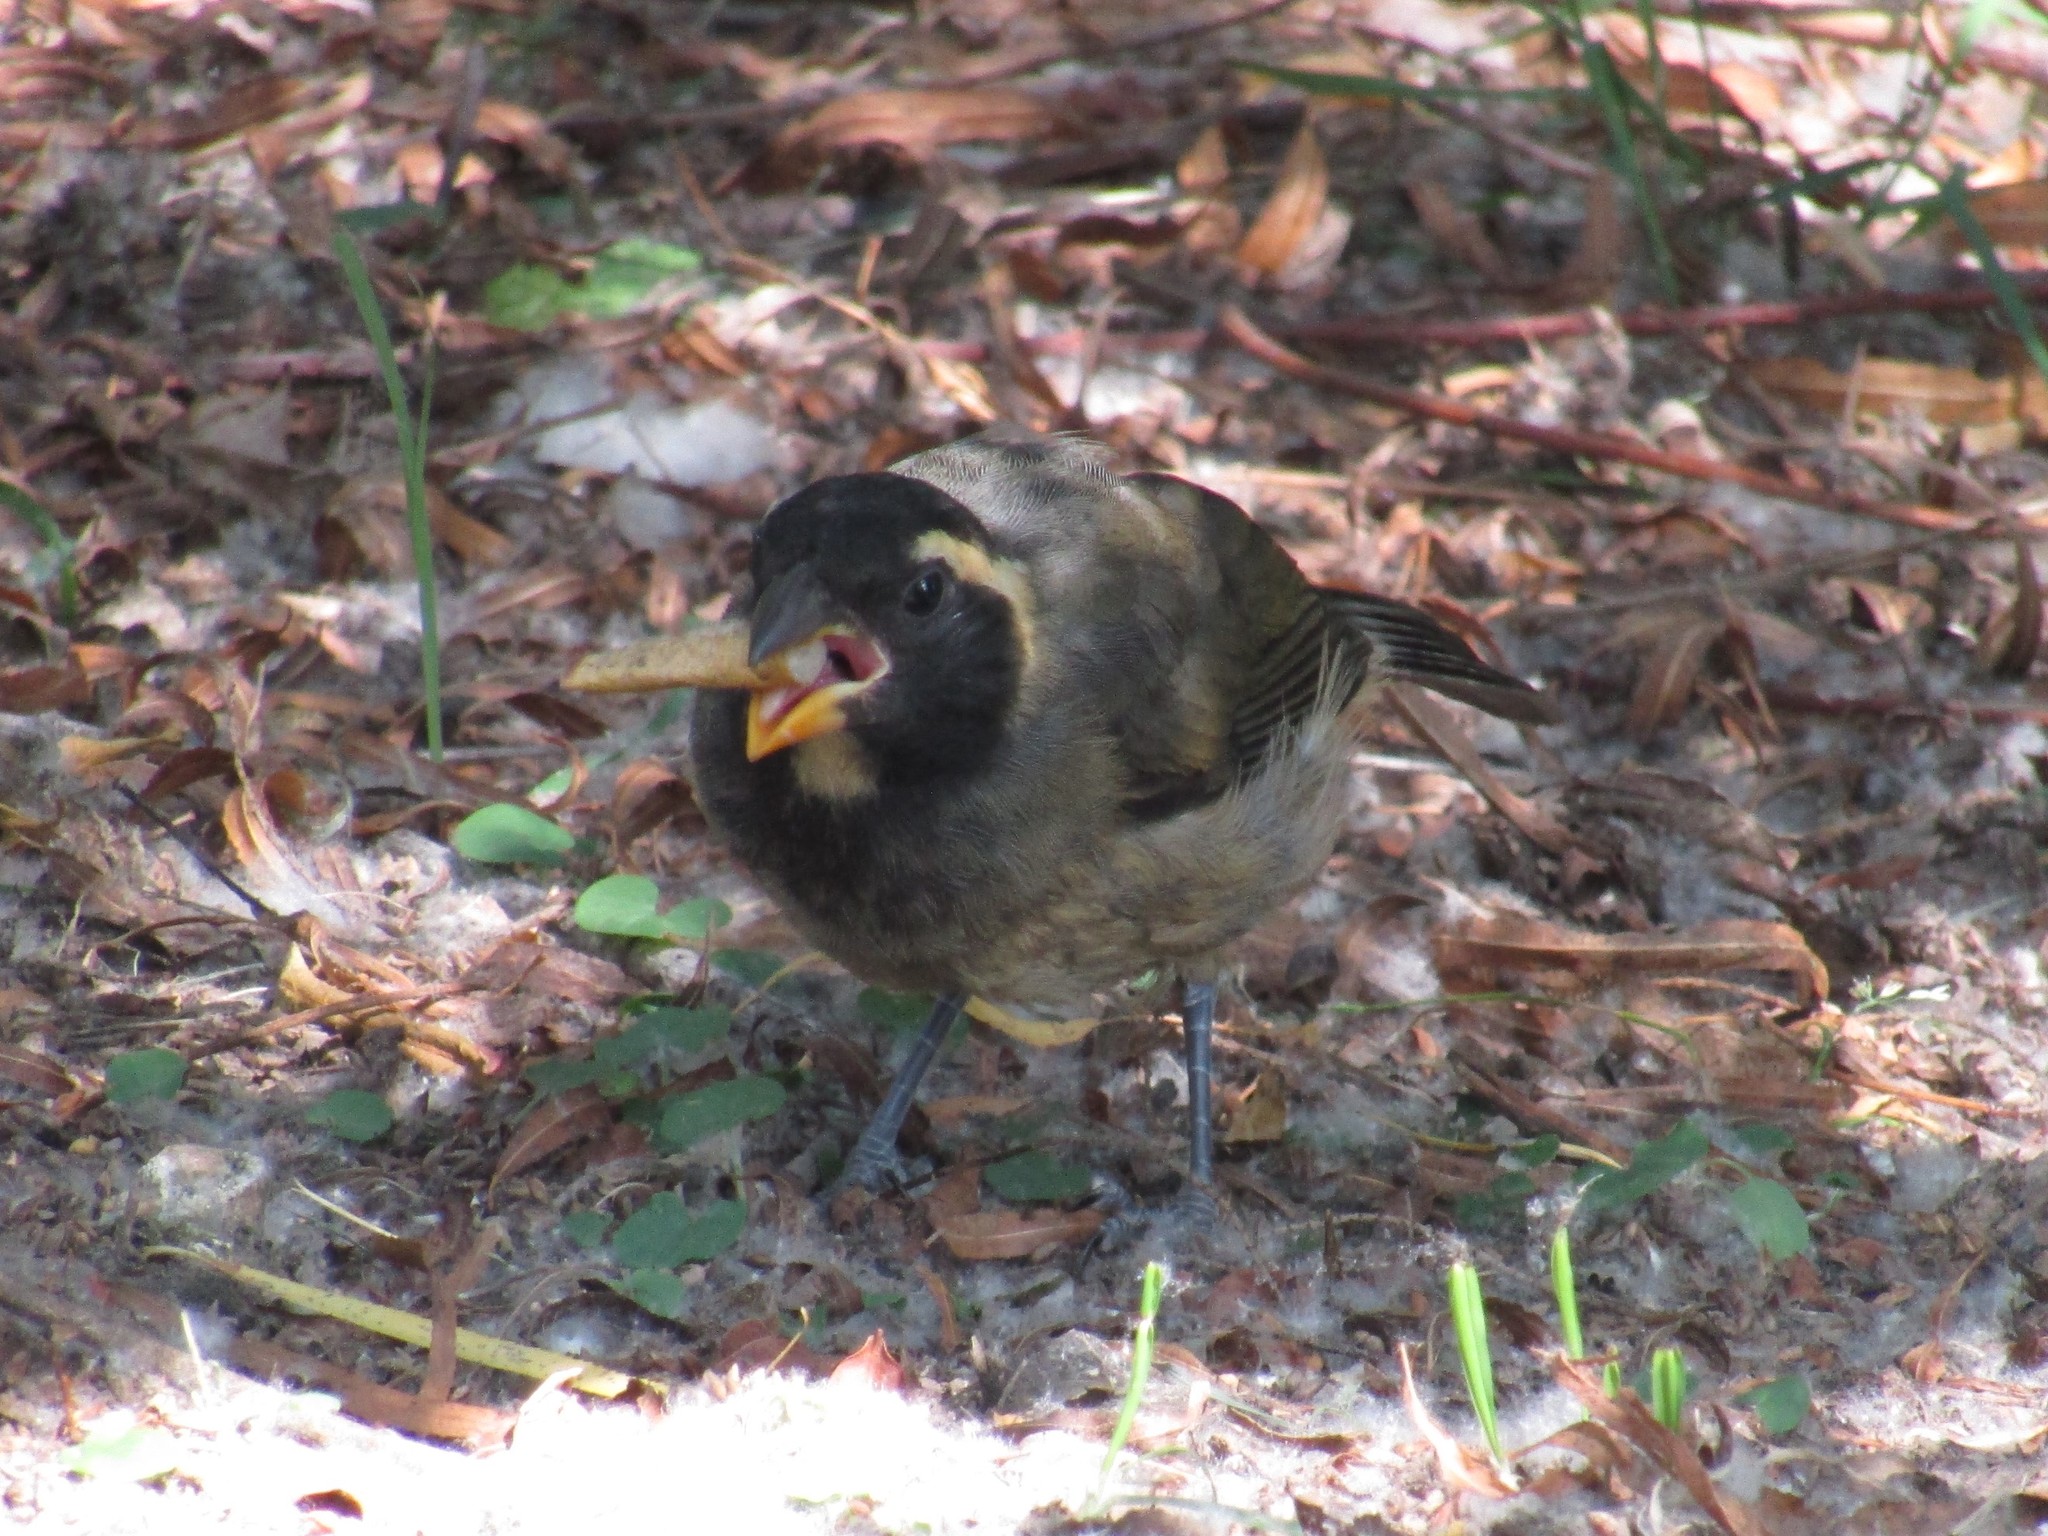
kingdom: Animalia
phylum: Chordata
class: Aves
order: Passeriformes
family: Thraupidae
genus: Saltator
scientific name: Saltator aurantiirostris
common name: Golden-billed saltator
